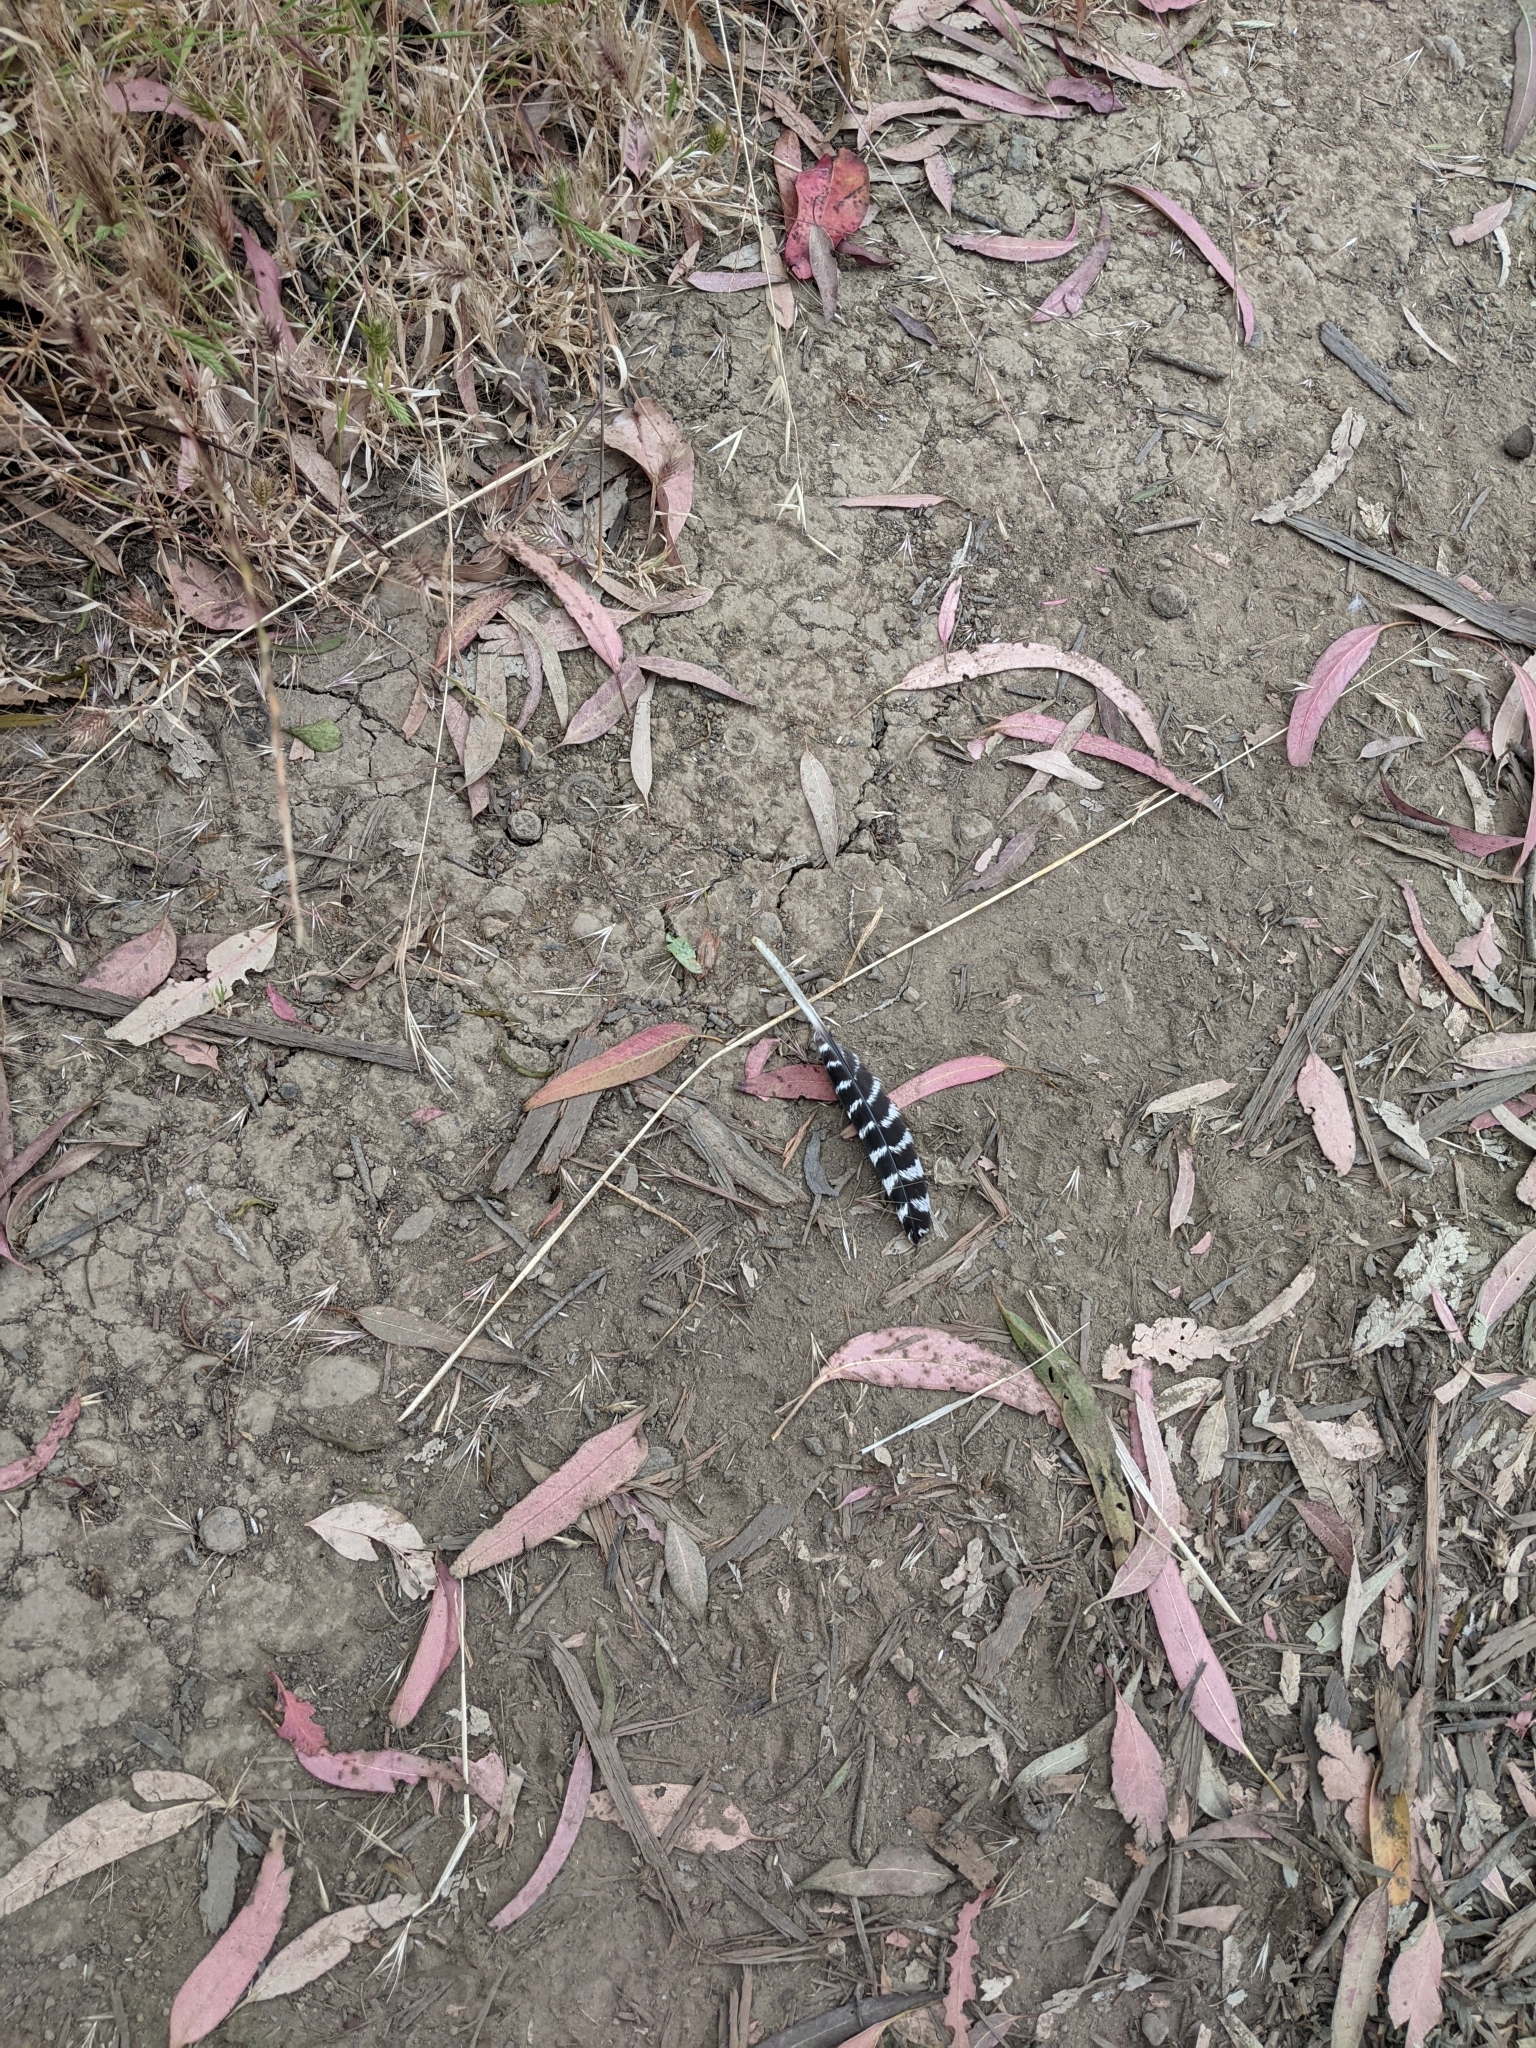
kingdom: Animalia
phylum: Chordata
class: Aves
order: Galliformes
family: Phasianidae
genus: Meleagris
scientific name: Meleagris gallopavo
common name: Wild turkey
